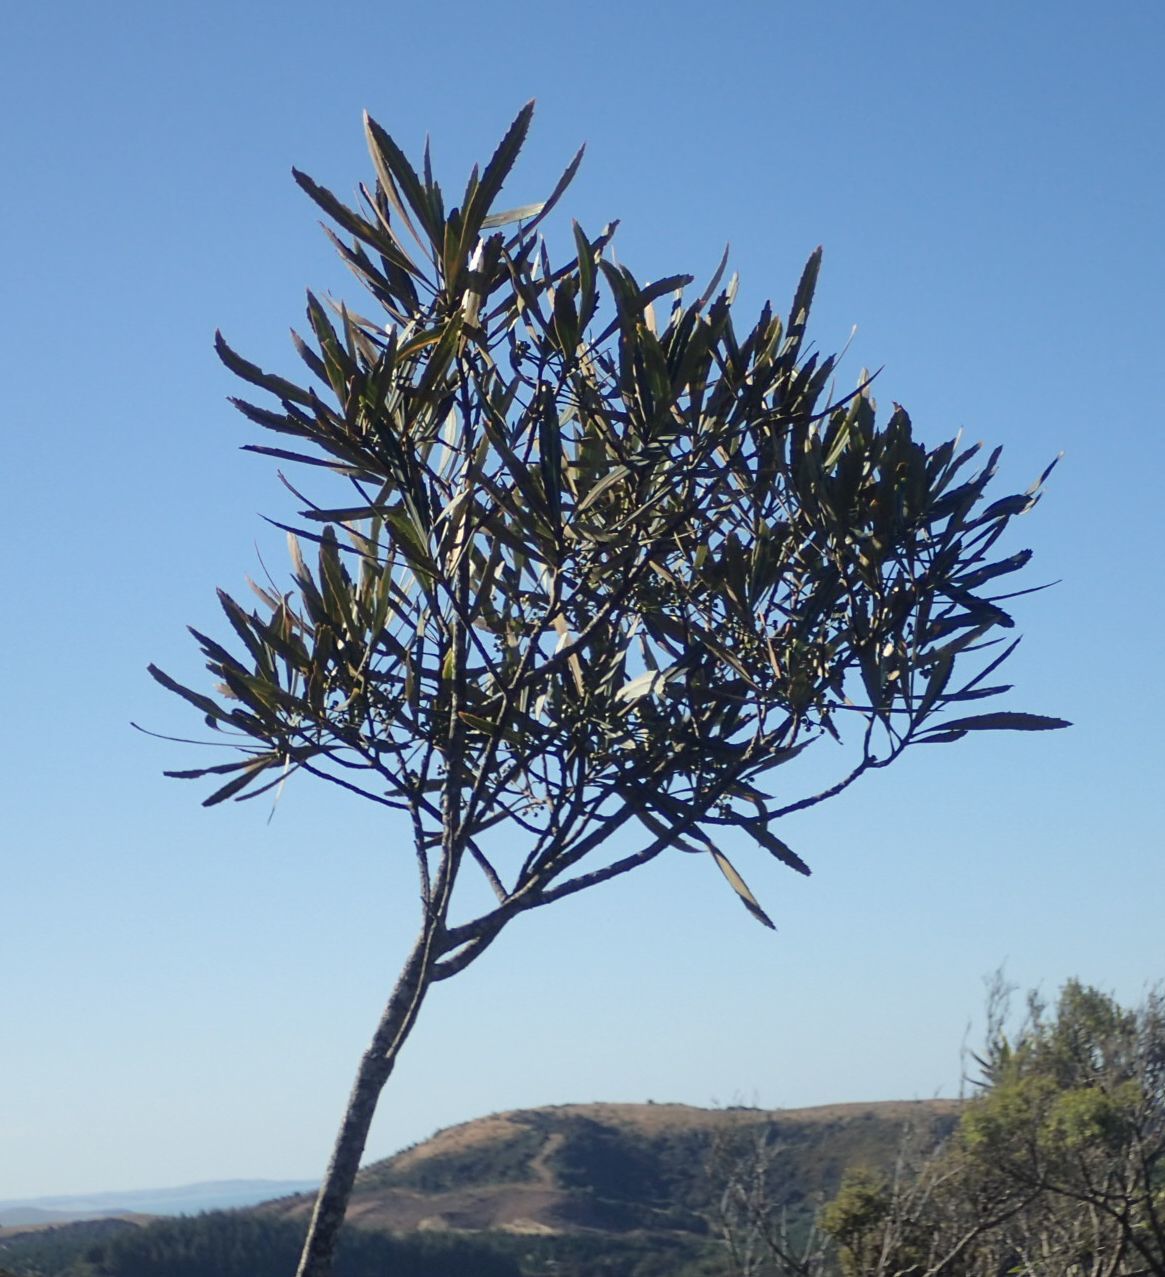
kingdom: Plantae
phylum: Tracheophyta
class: Magnoliopsida
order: Apiales
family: Araliaceae
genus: Pseudopanax
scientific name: Pseudopanax crassifolius
